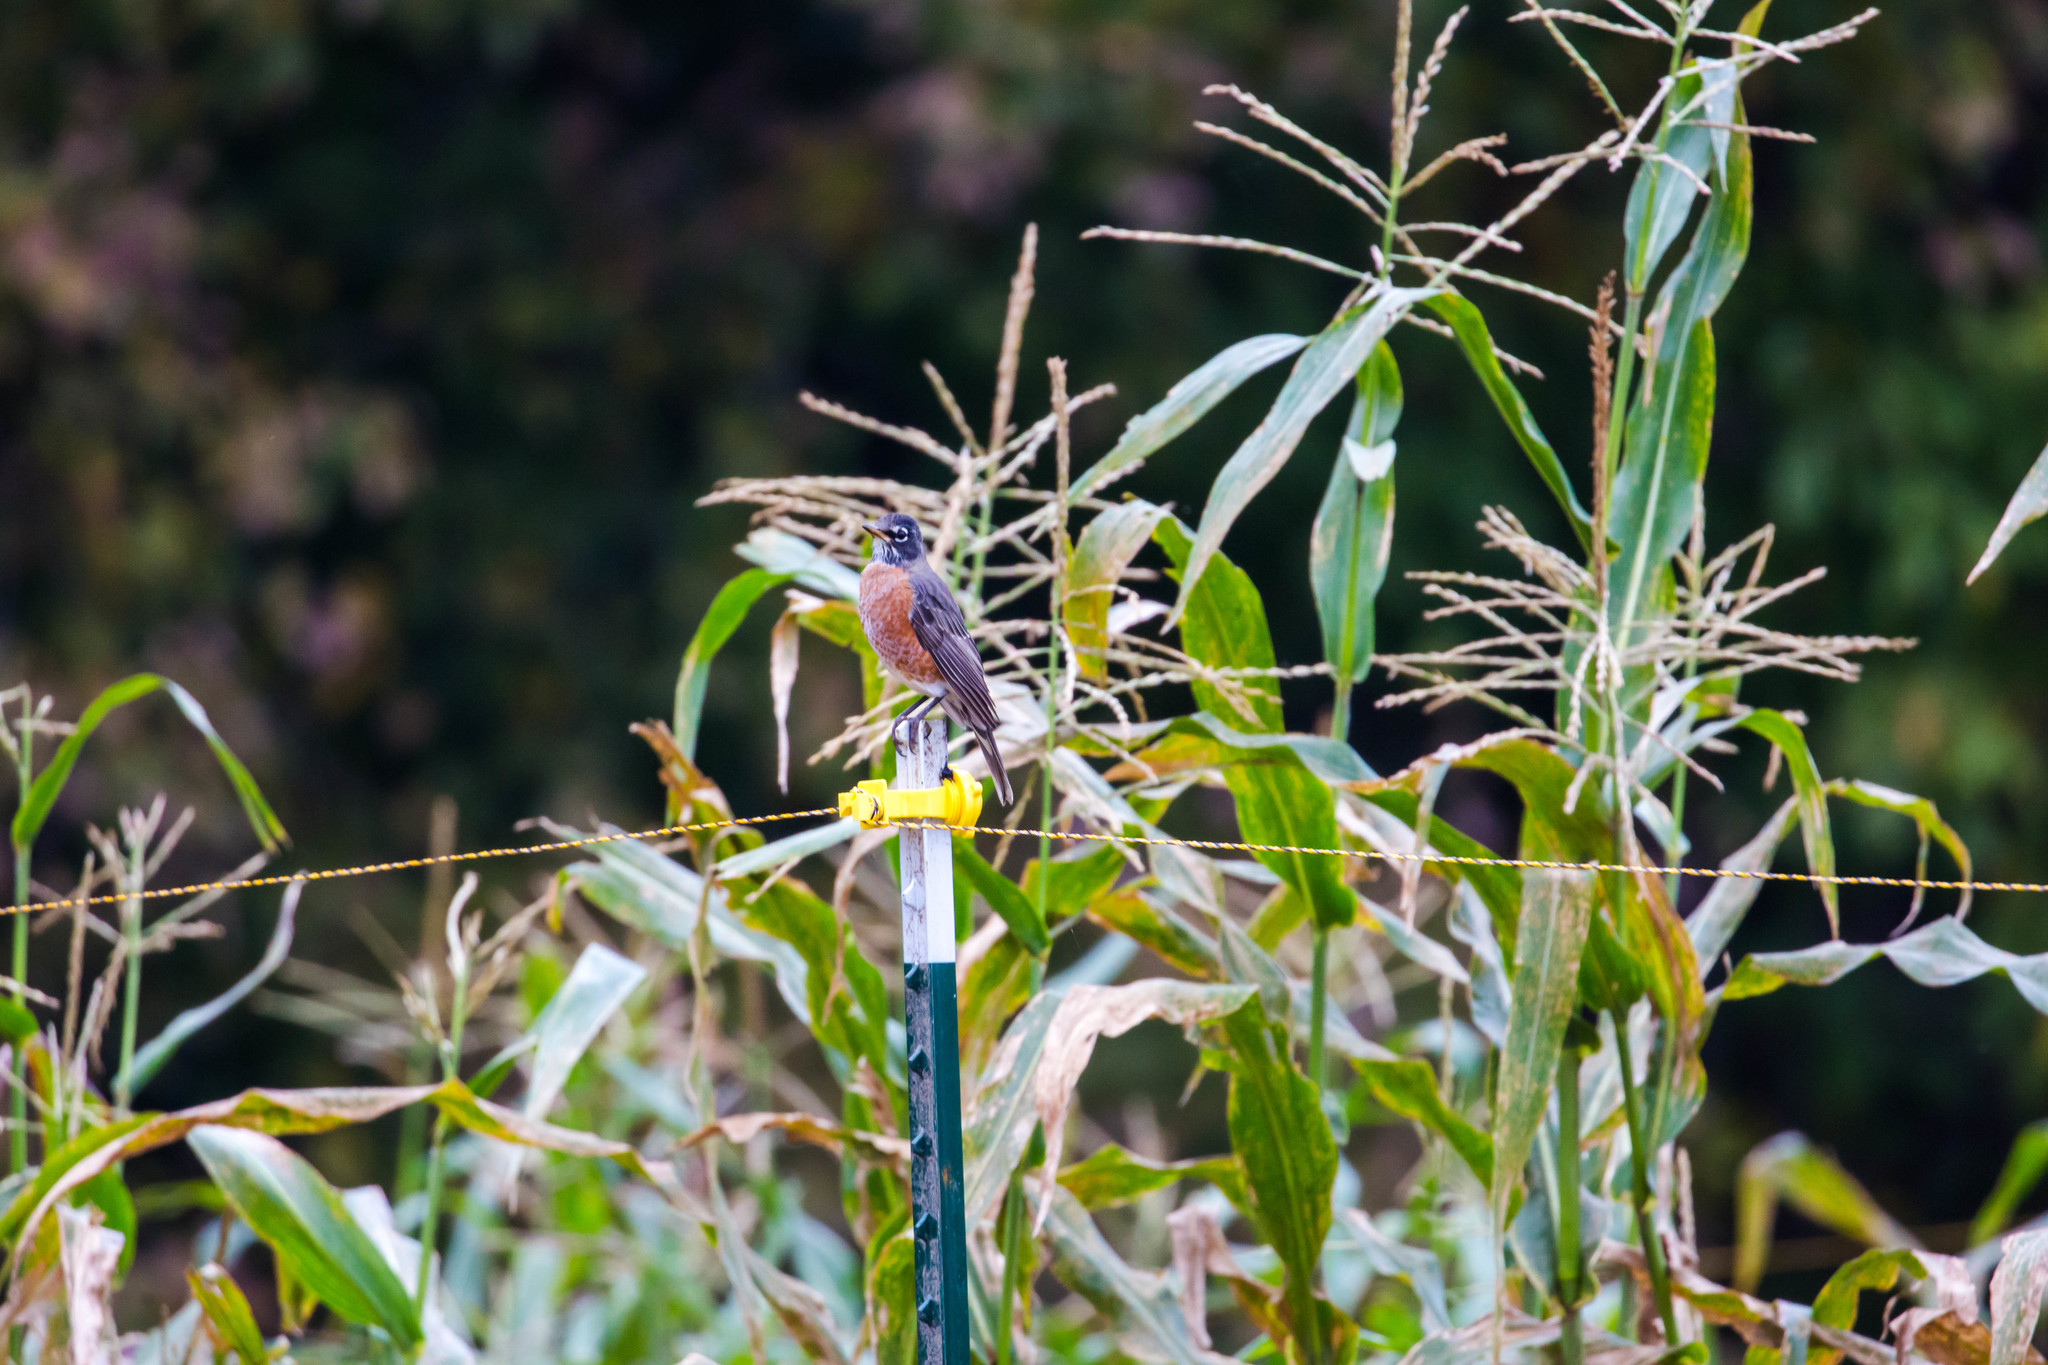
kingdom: Animalia
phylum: Chordata
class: Aves
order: Passeriformes
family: Turdidae
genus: Turdus
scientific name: Turdus migratorius
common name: American robin
